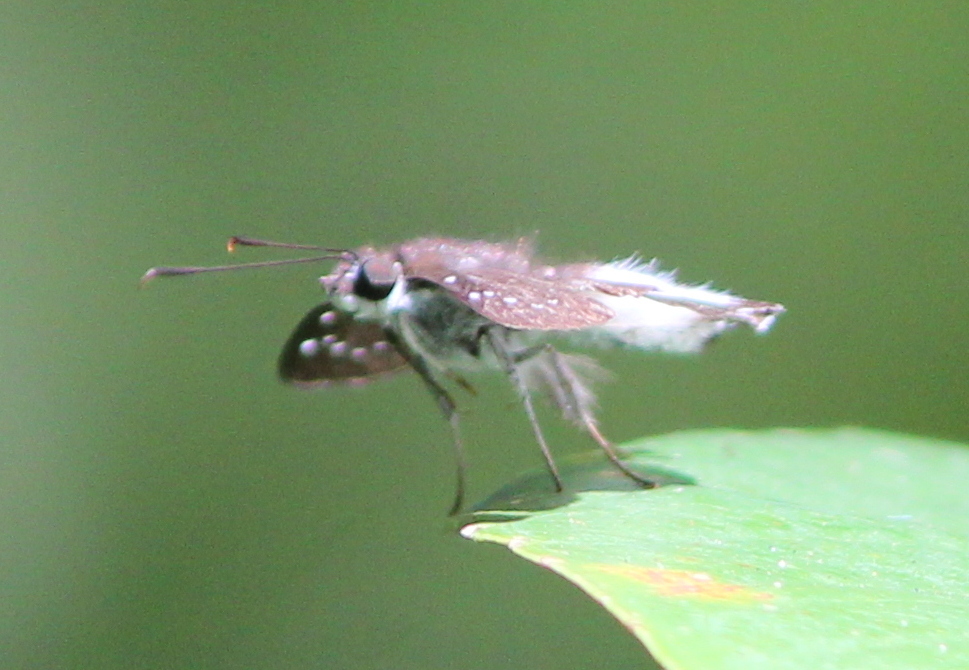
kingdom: Animalia
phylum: Arthropoda
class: Insecta
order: Lepidoptera
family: Hesperiidae
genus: Tagiades
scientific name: Tagiades litigiosa
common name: Water snow flat
